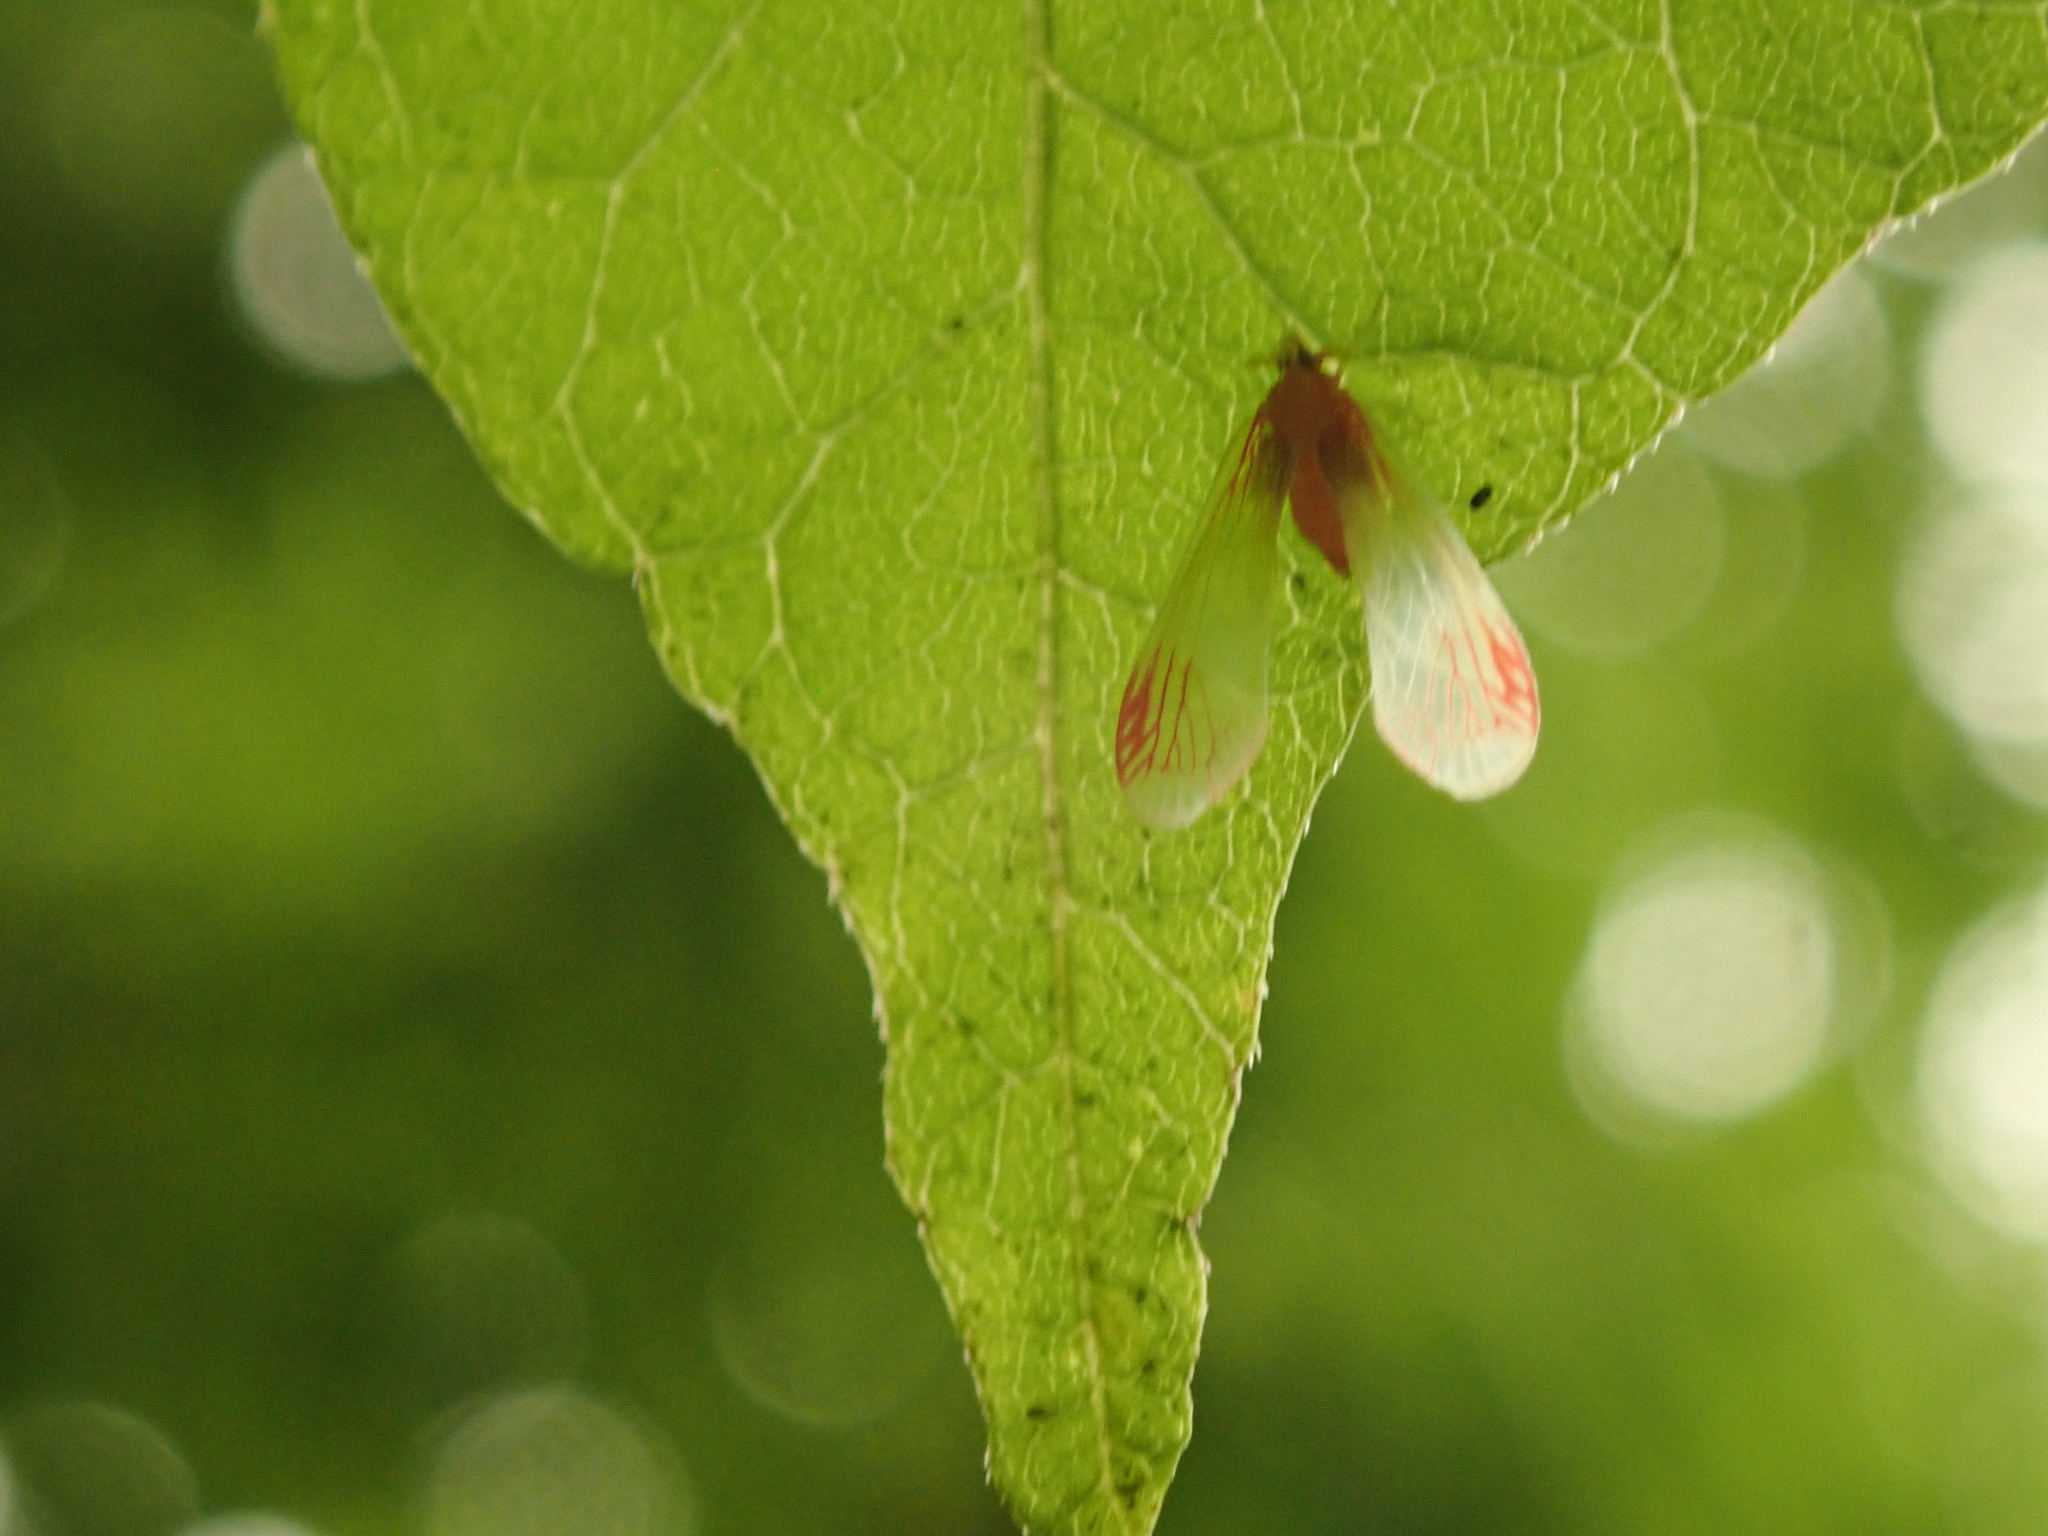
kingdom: Animalia
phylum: Arthropoda
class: Insecta
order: Hemiptera
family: Derbidae
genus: Anotia
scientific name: Anotia uhleri
